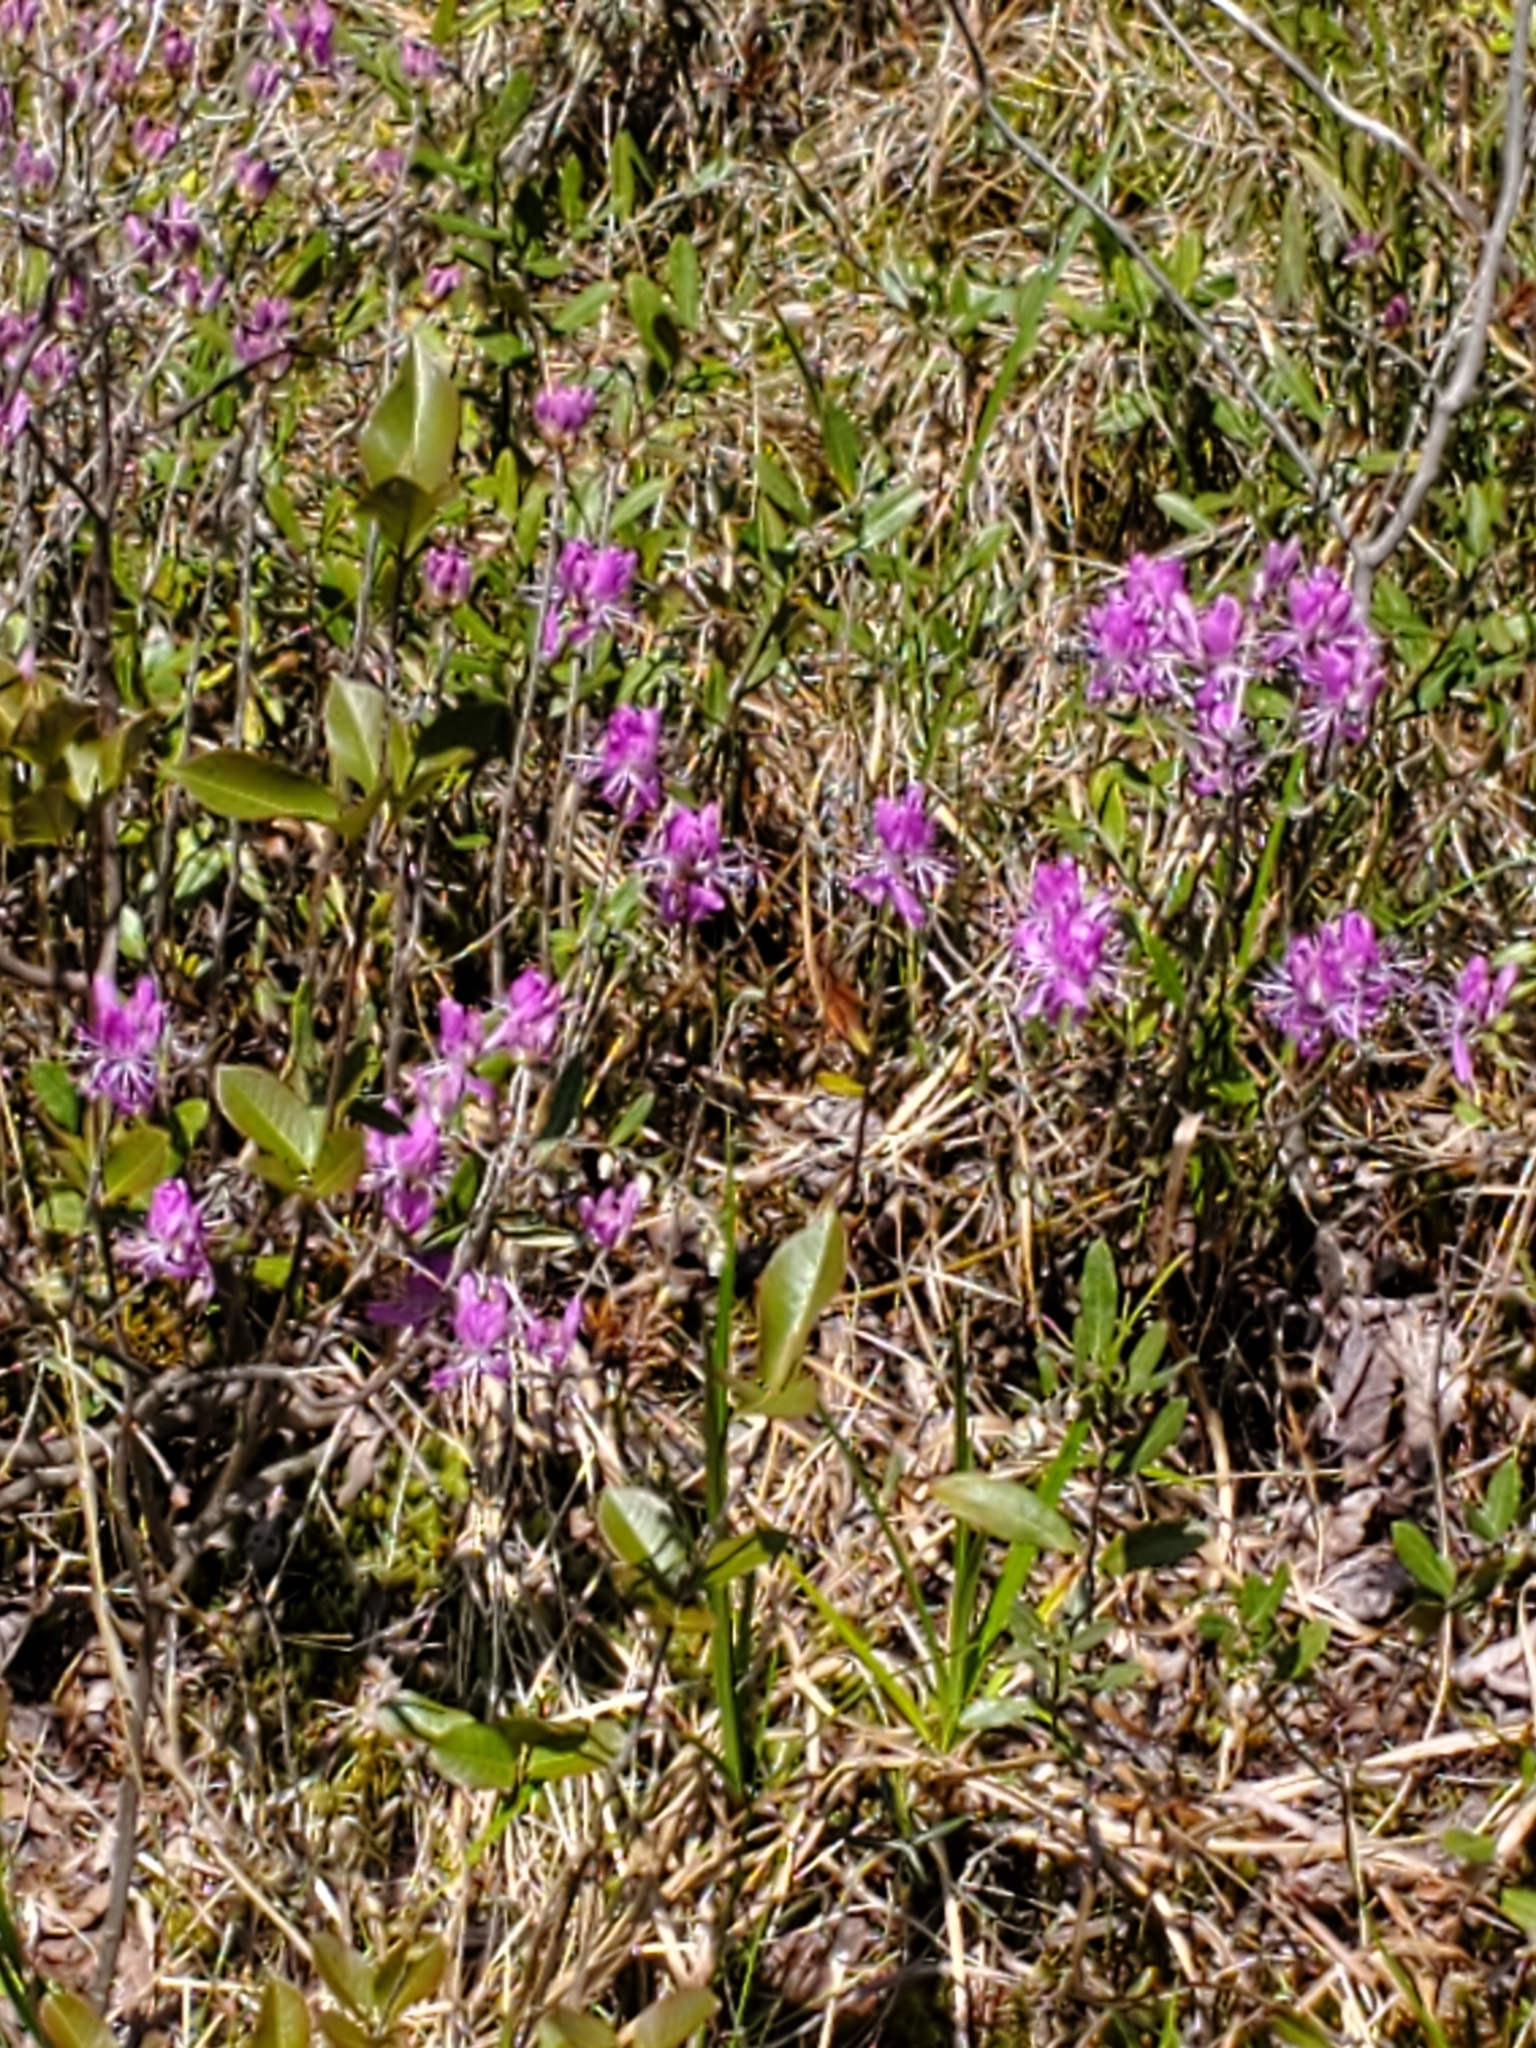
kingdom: Plantae
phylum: Tracheophyta
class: Magnoliopsida
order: Ericales
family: Ericaceae
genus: Rhododendron
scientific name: Rhododendron canadense
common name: Rhodora
